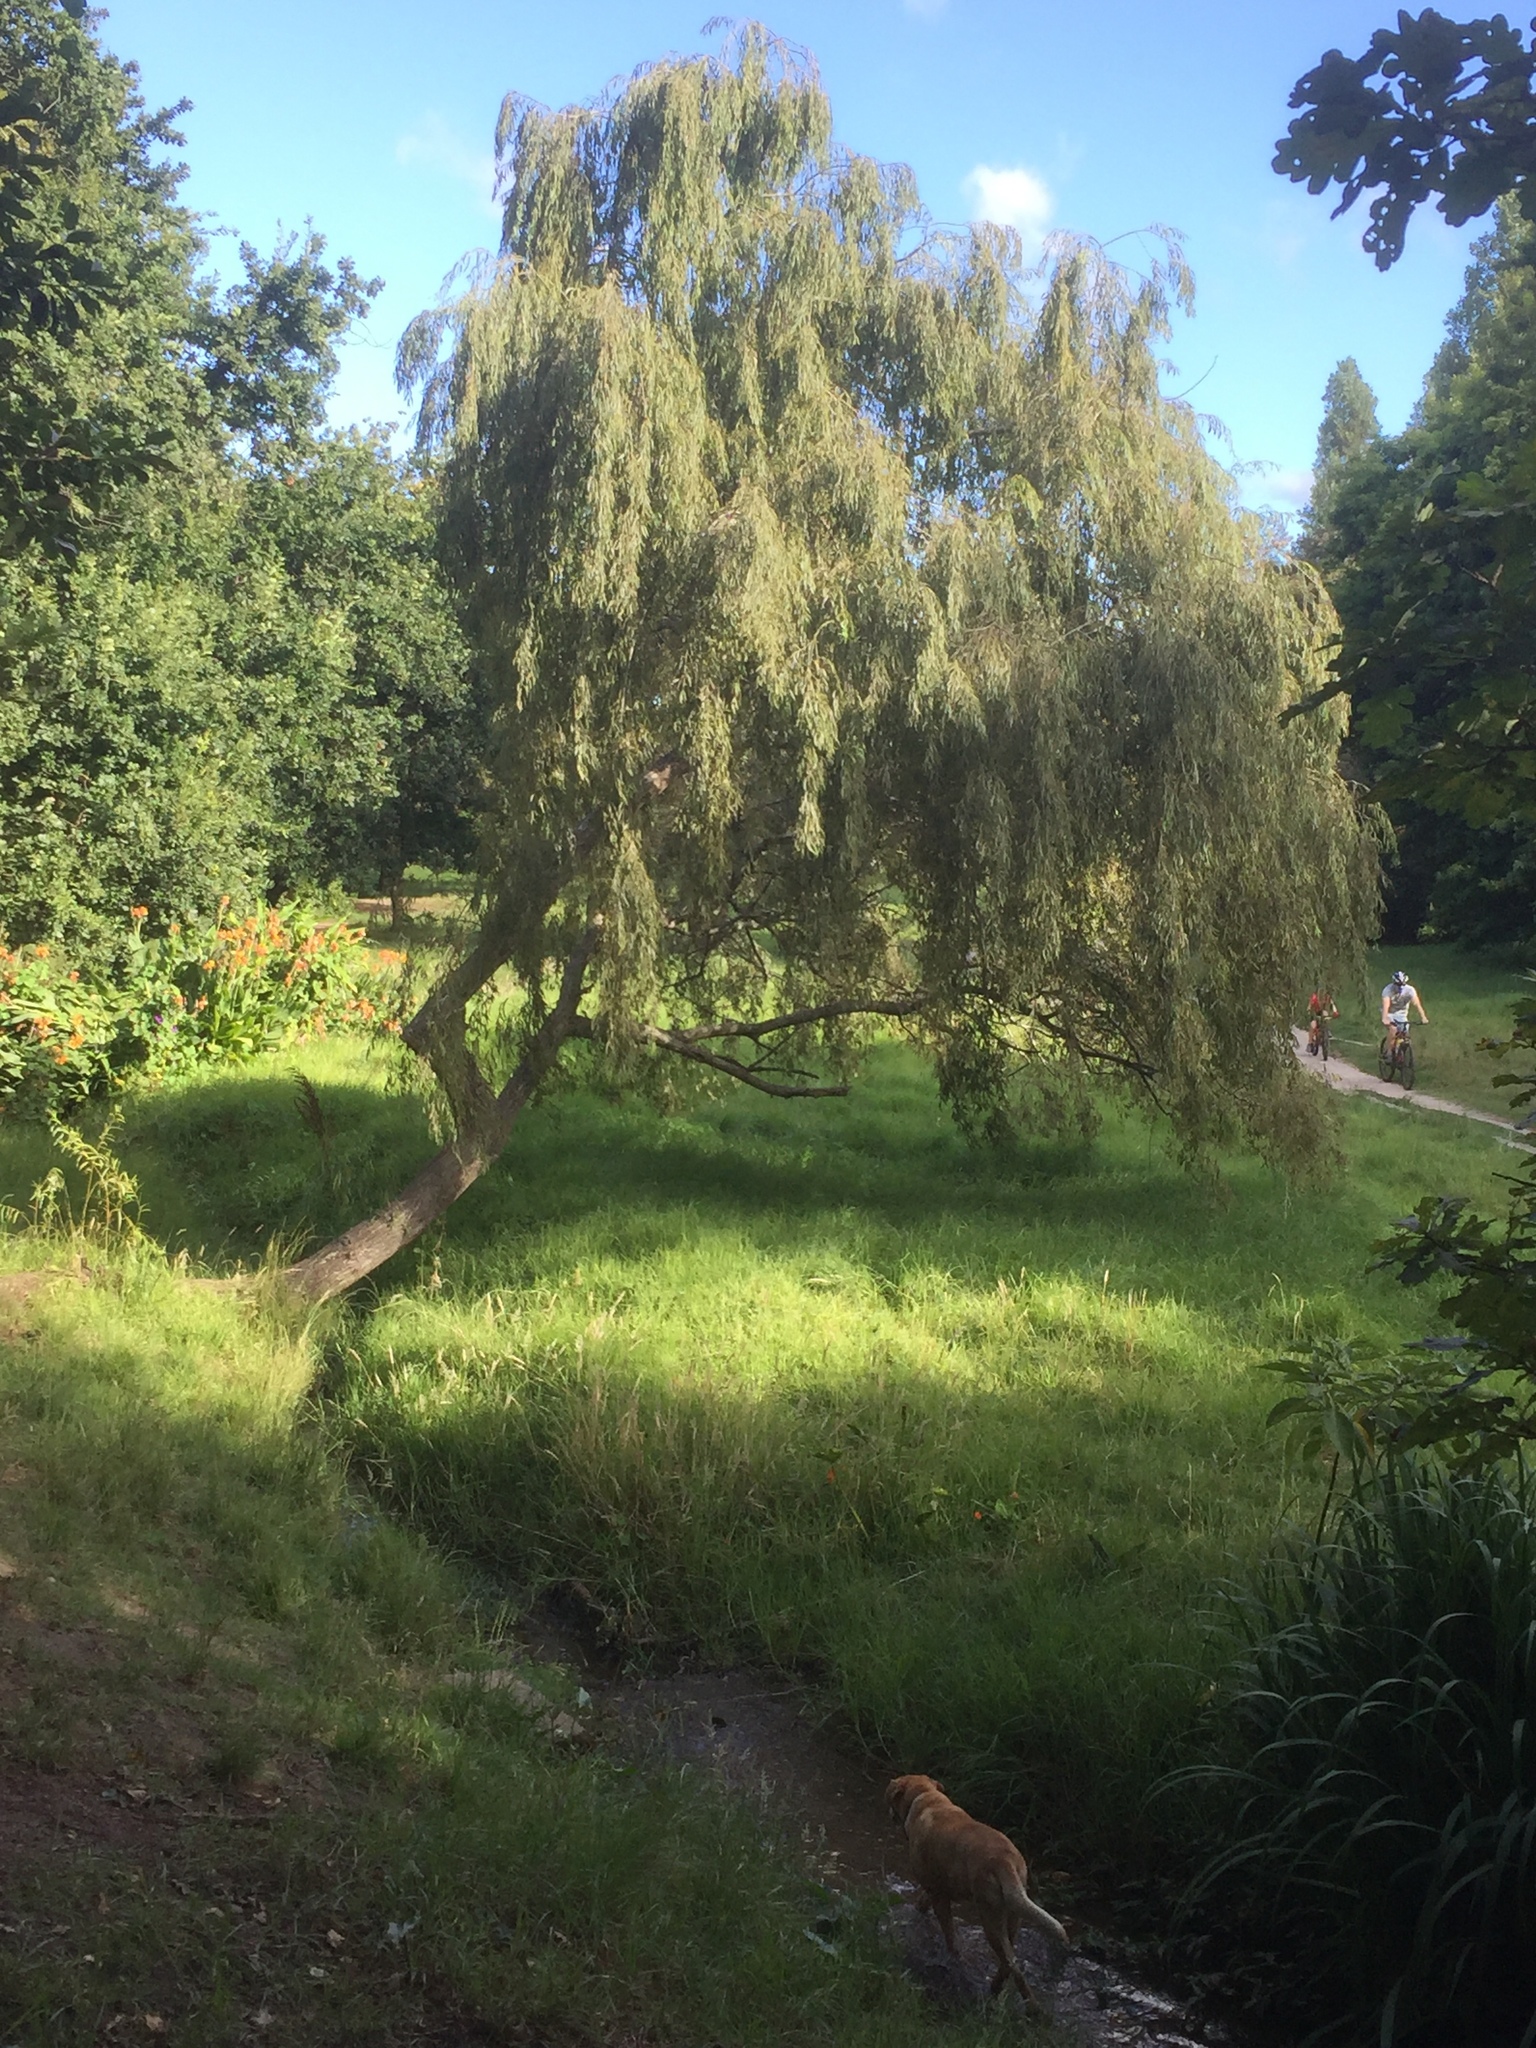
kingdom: Plantae
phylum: Tracheophyta
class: Magnoliopsida
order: Malpighiales
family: Salicaceae
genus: Salix
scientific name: Salix babylonica
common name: Weeping willow
